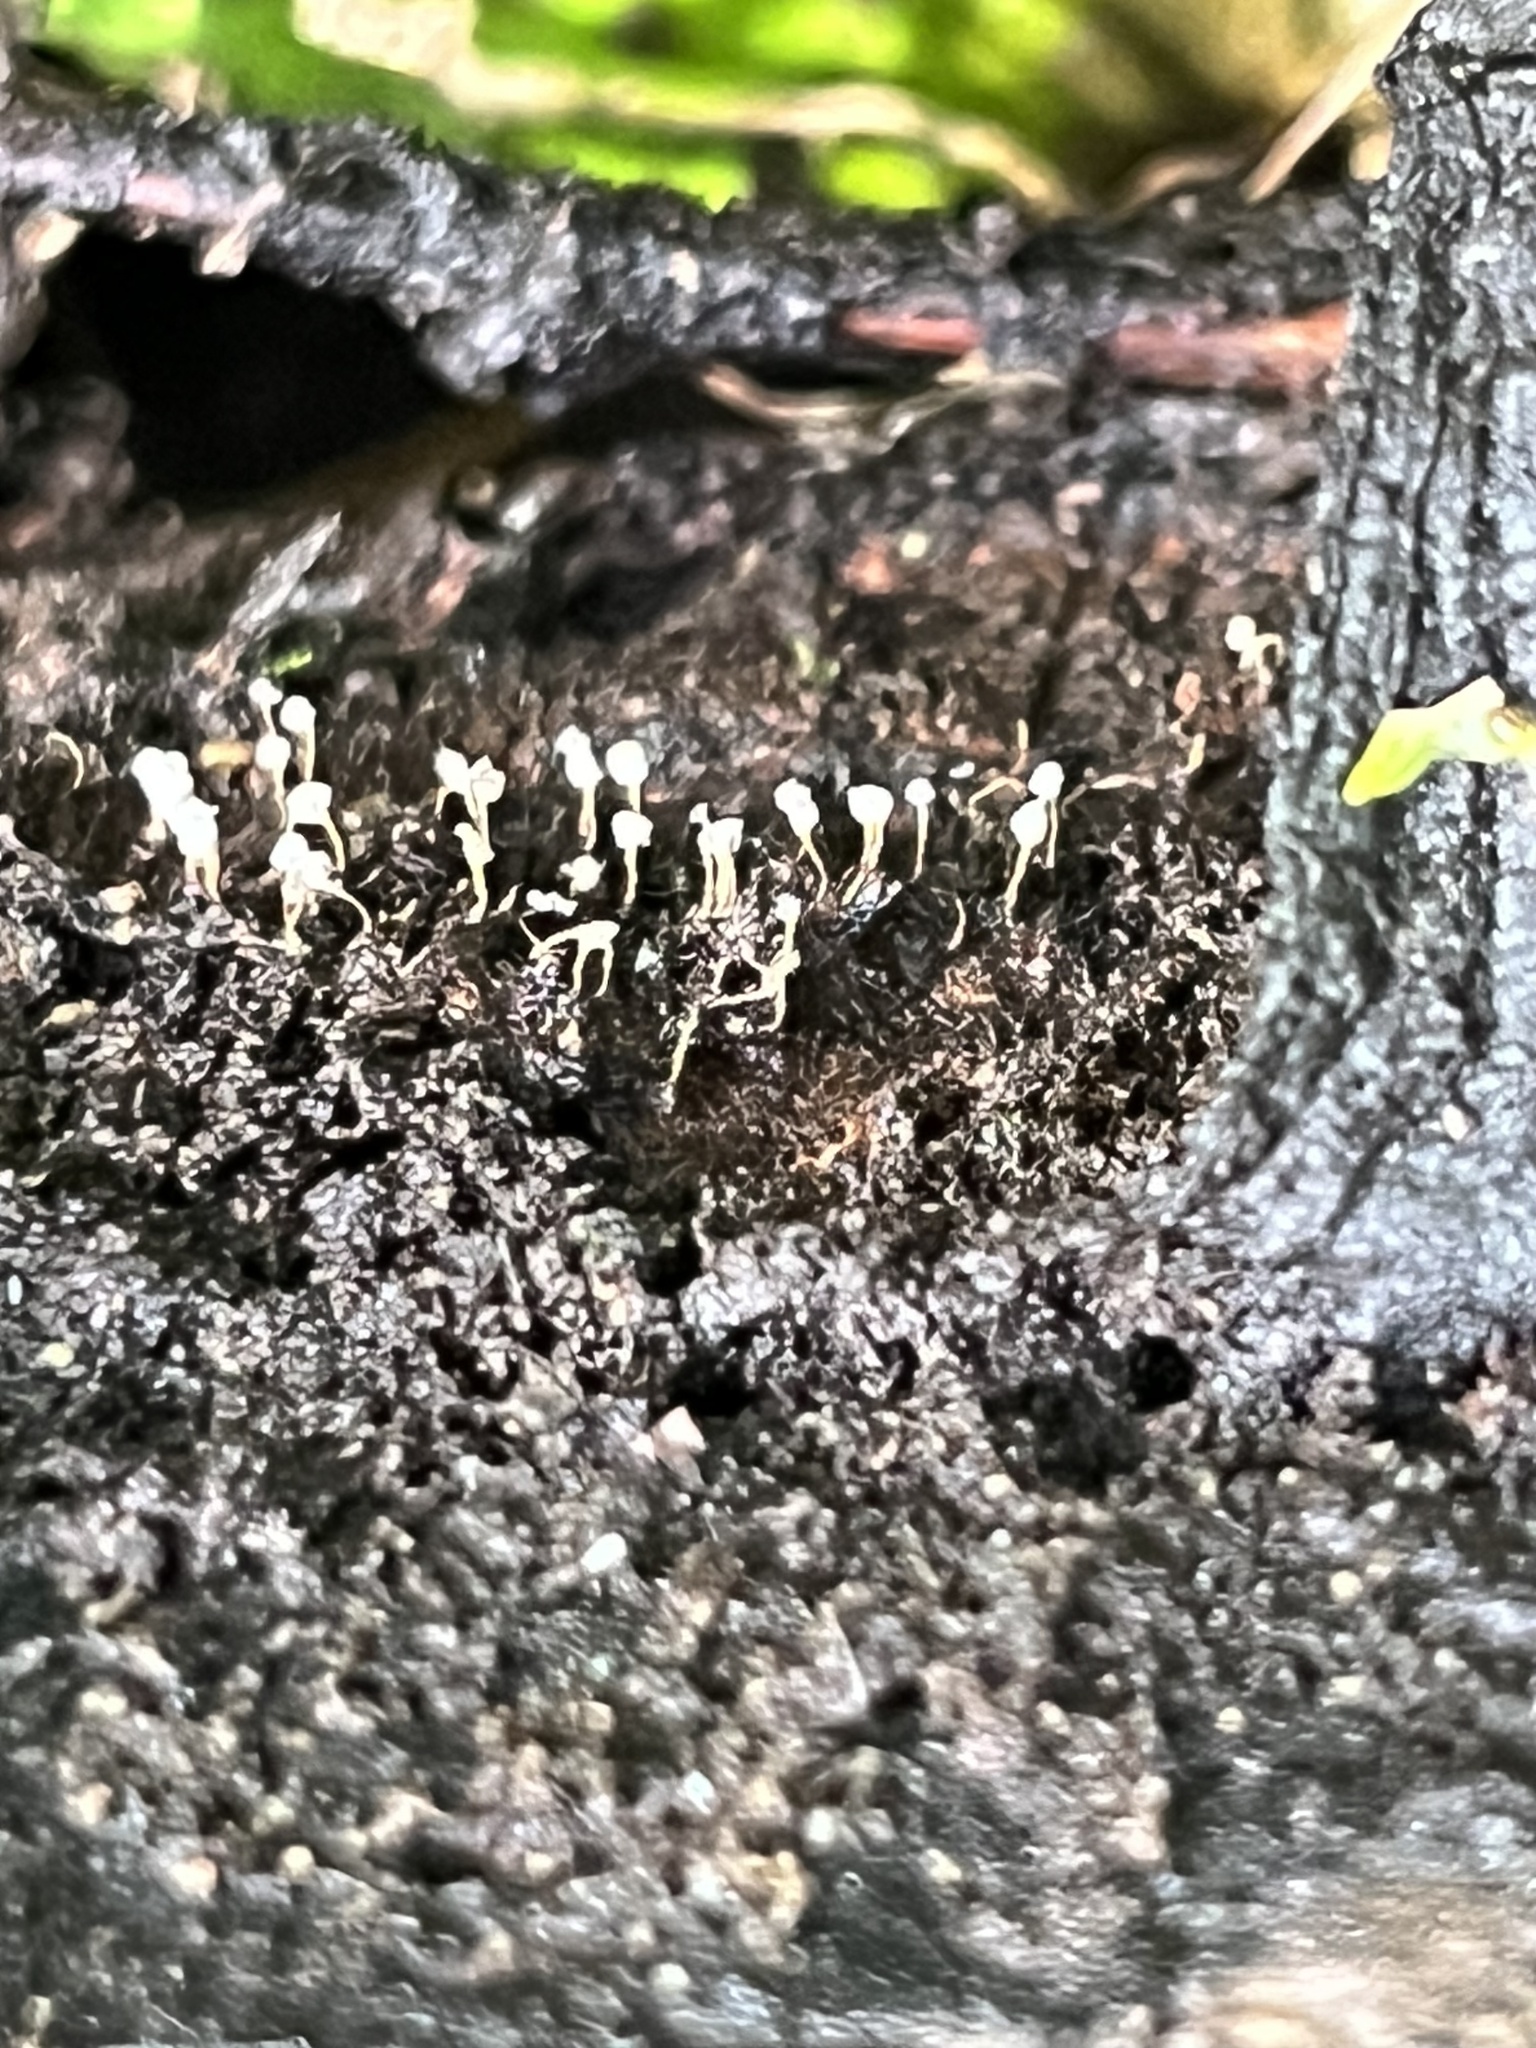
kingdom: Fungi
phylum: Basidiomycota
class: Atractiellomycetes
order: Atractiellales
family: Phleogenaceae
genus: Phleogena
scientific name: Phleogena faginea
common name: Fenugreek stalkball
